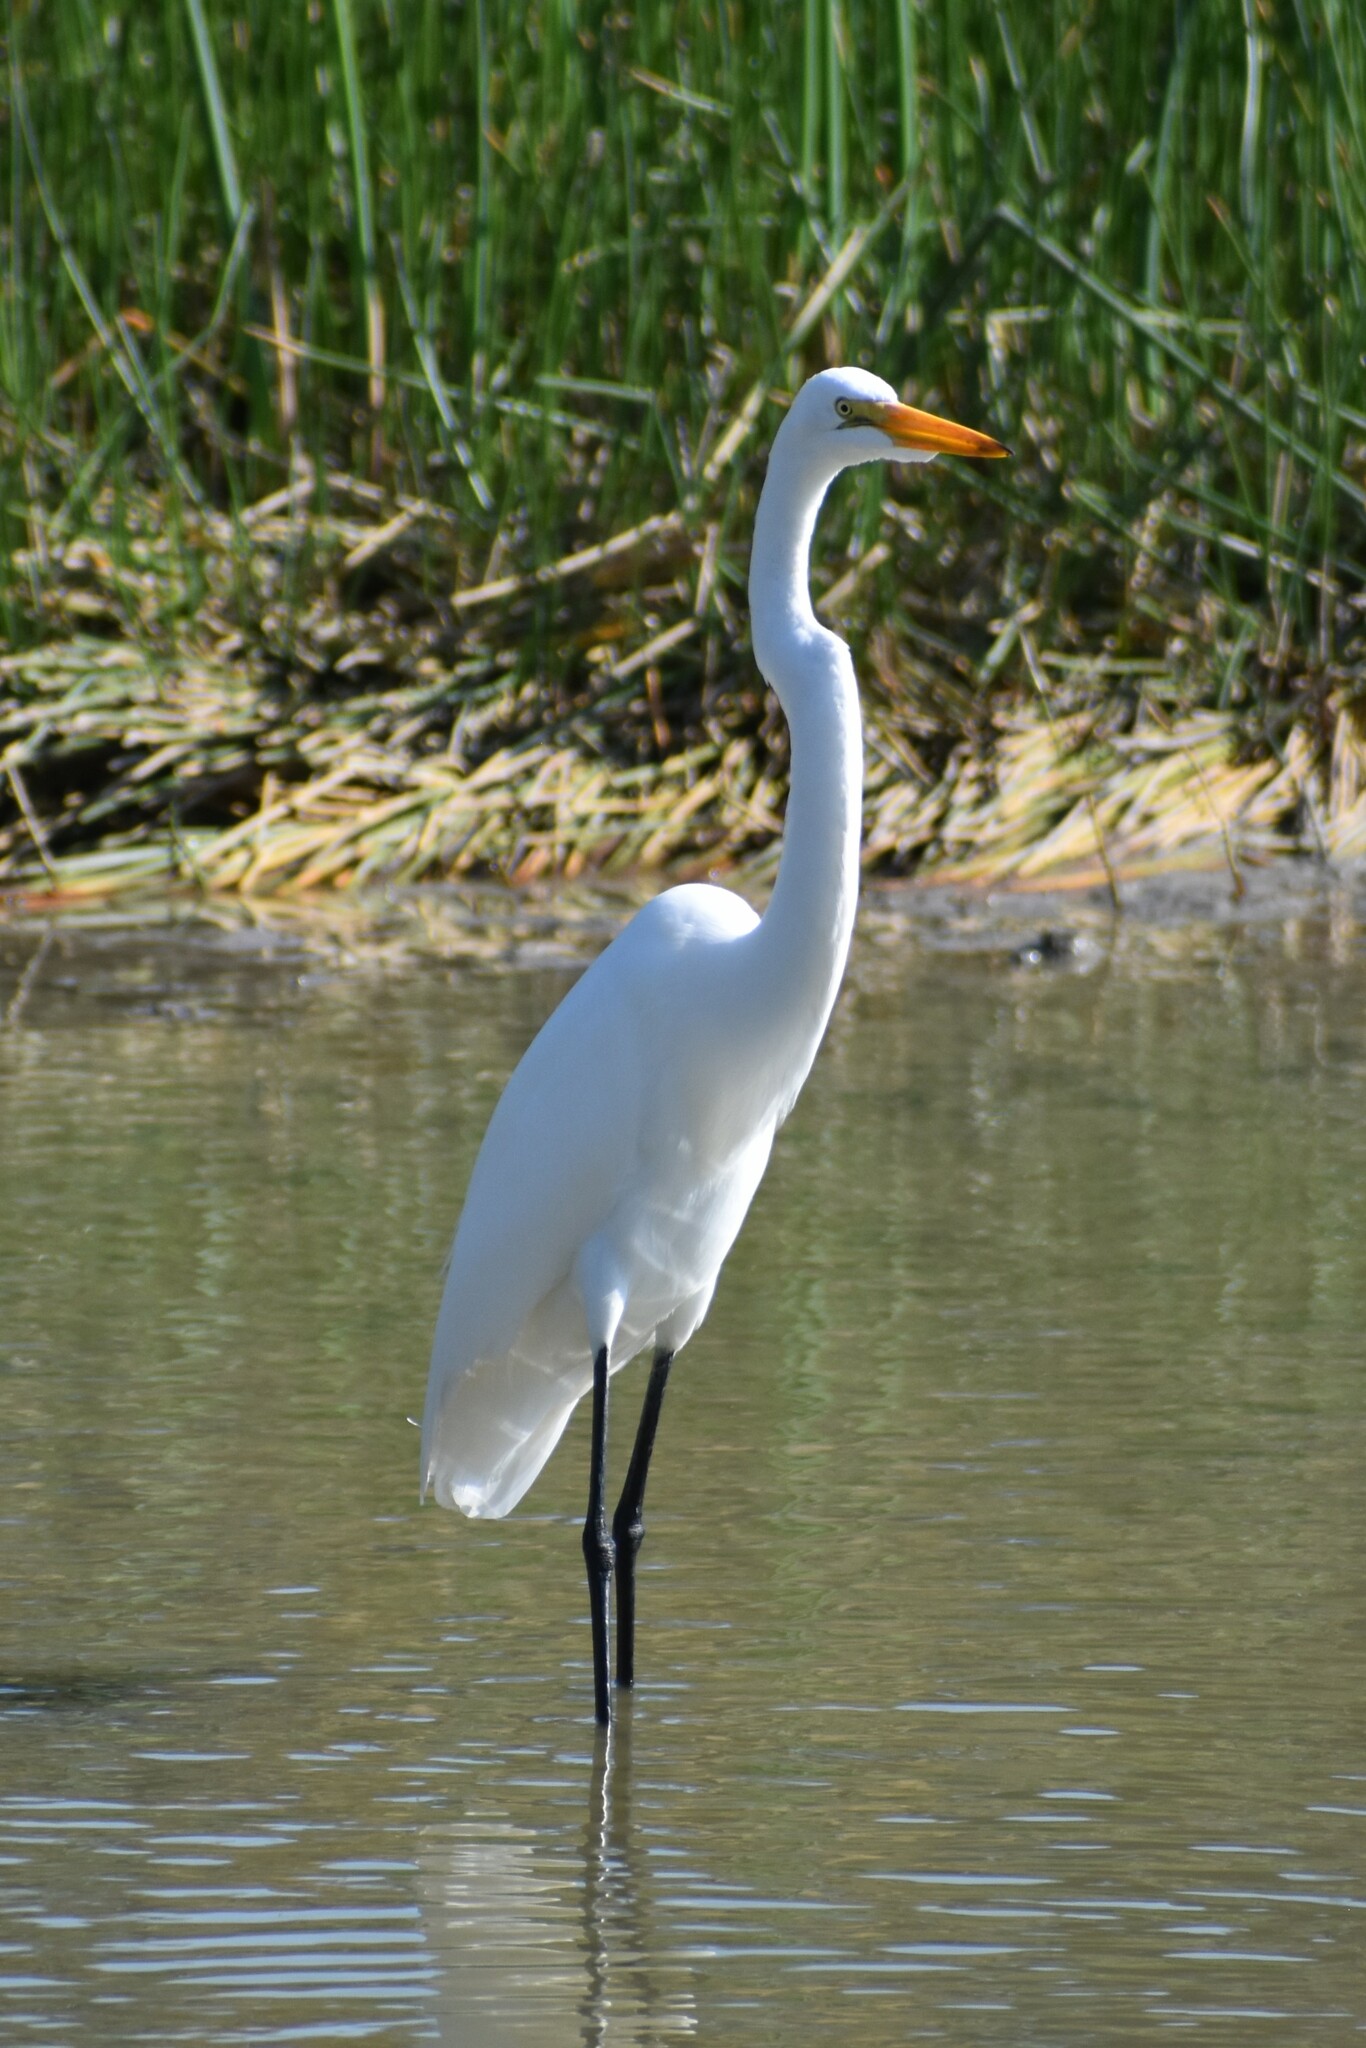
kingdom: Animalia
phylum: Chordata
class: Aves
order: Pelecaniformes
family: Ardeidae
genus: Ardea
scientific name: Ardea alba
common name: Great egret
